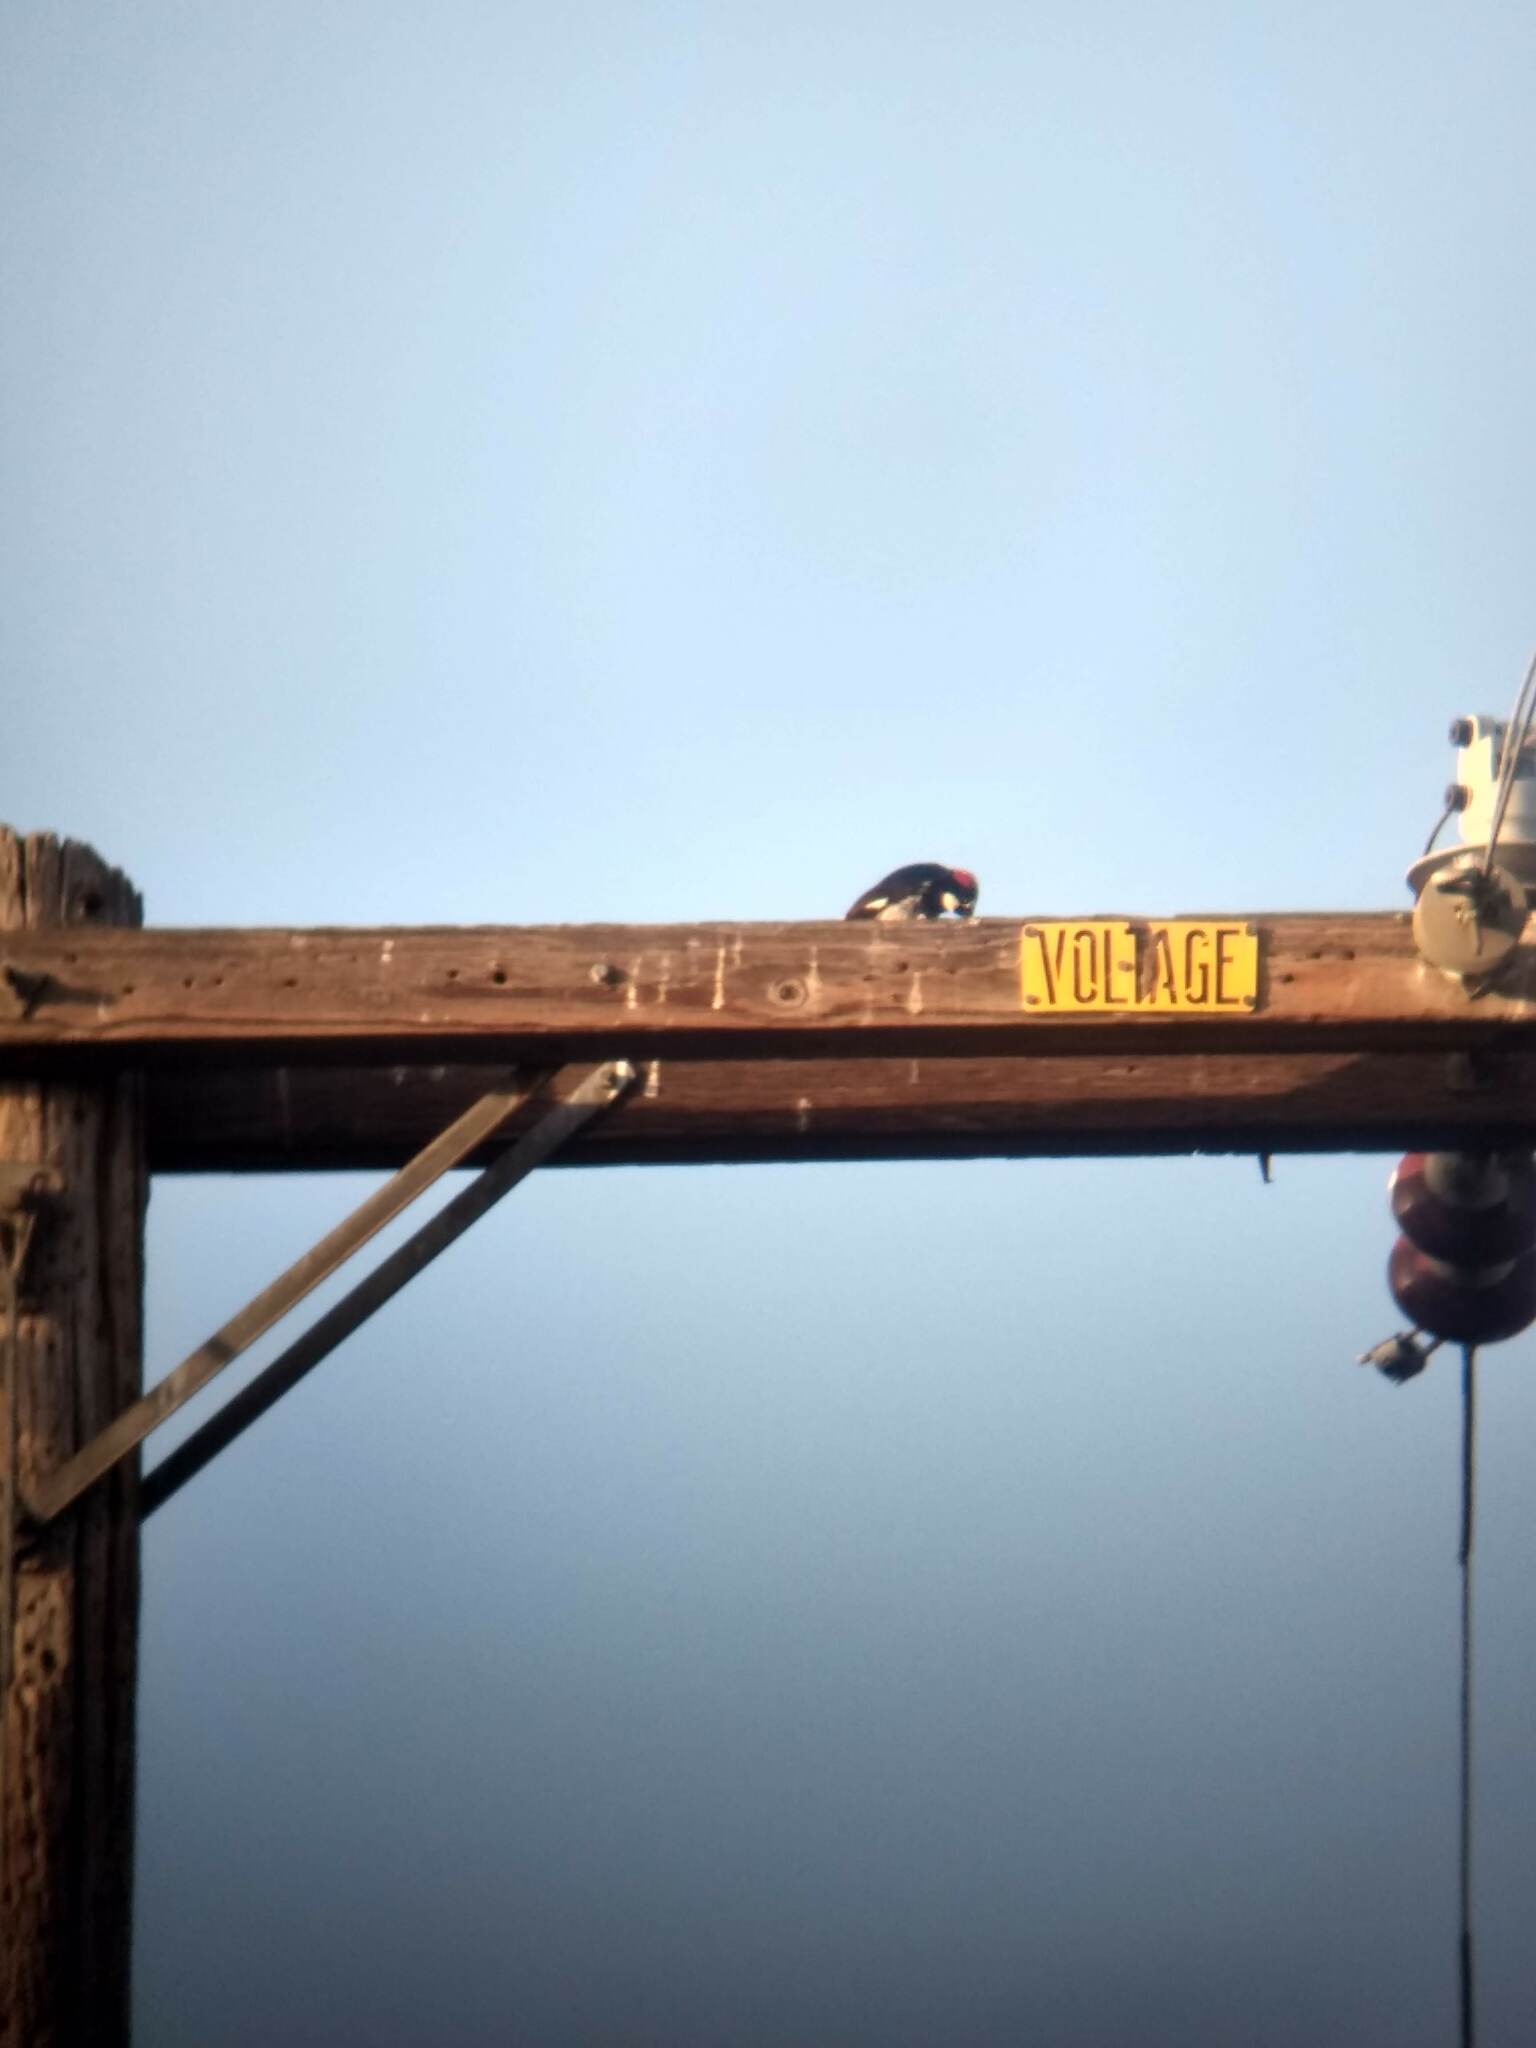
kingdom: Animalia
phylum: Chordata
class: Aves
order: Piciformes
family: Picidae
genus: Melanerpes
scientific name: Melanerpes formicivorus
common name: Acorn woodpecker
